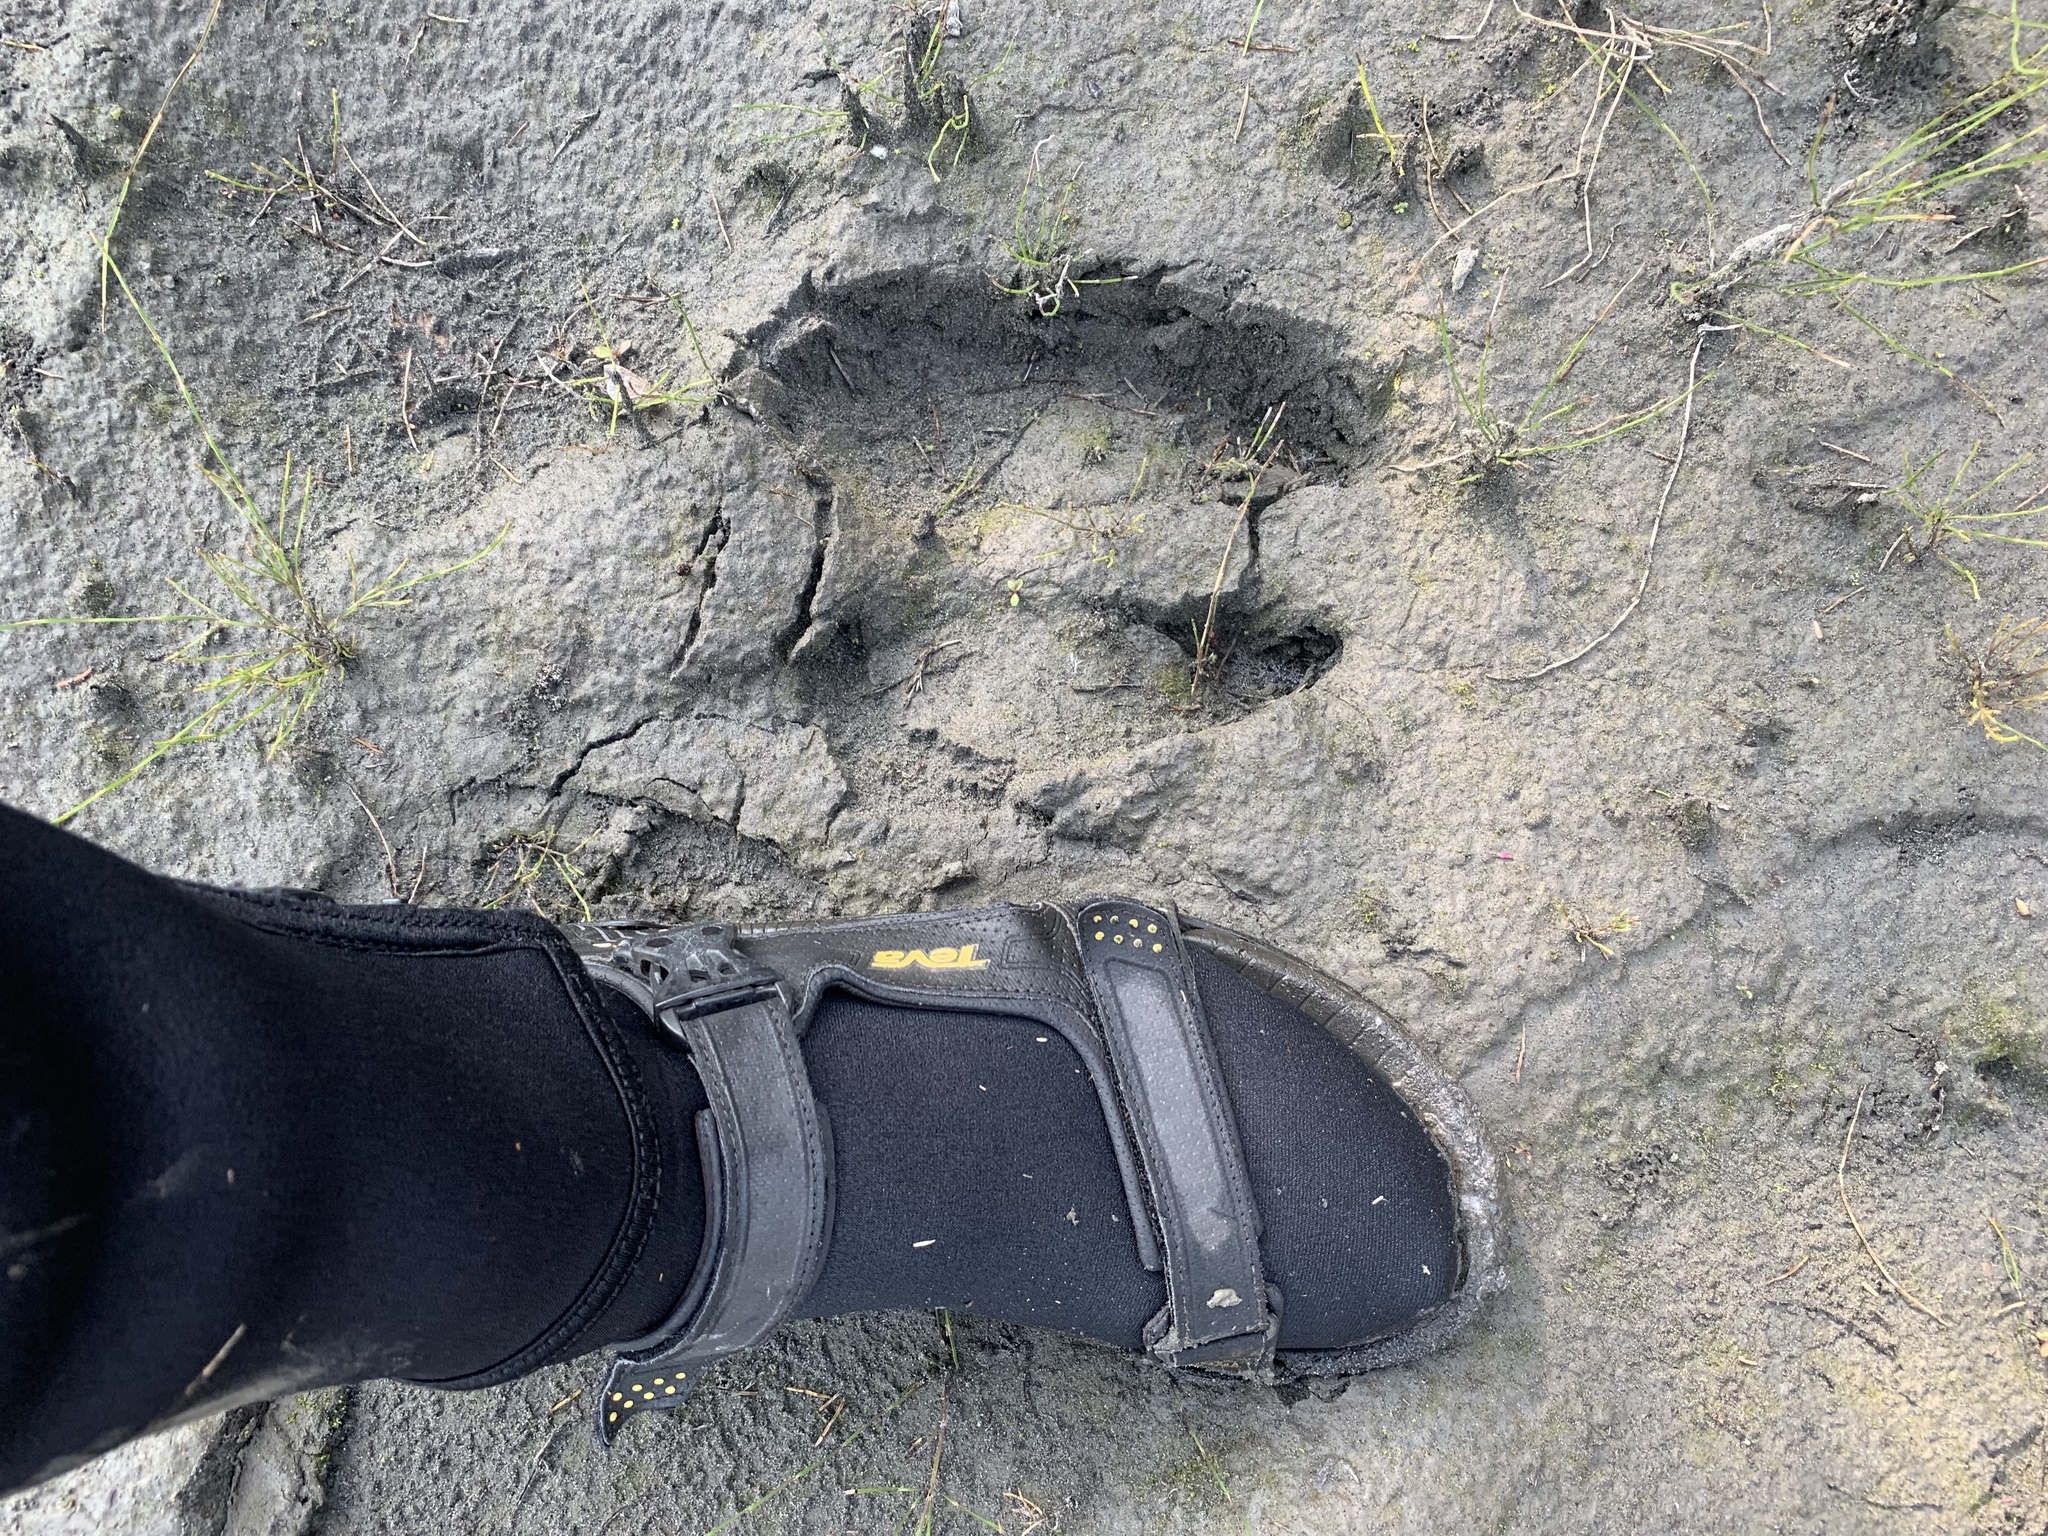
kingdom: Animalia
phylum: Chordata
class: Mammalia
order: Artiodactyla
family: Cervidae
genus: Alces
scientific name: Alces alces
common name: Moose
